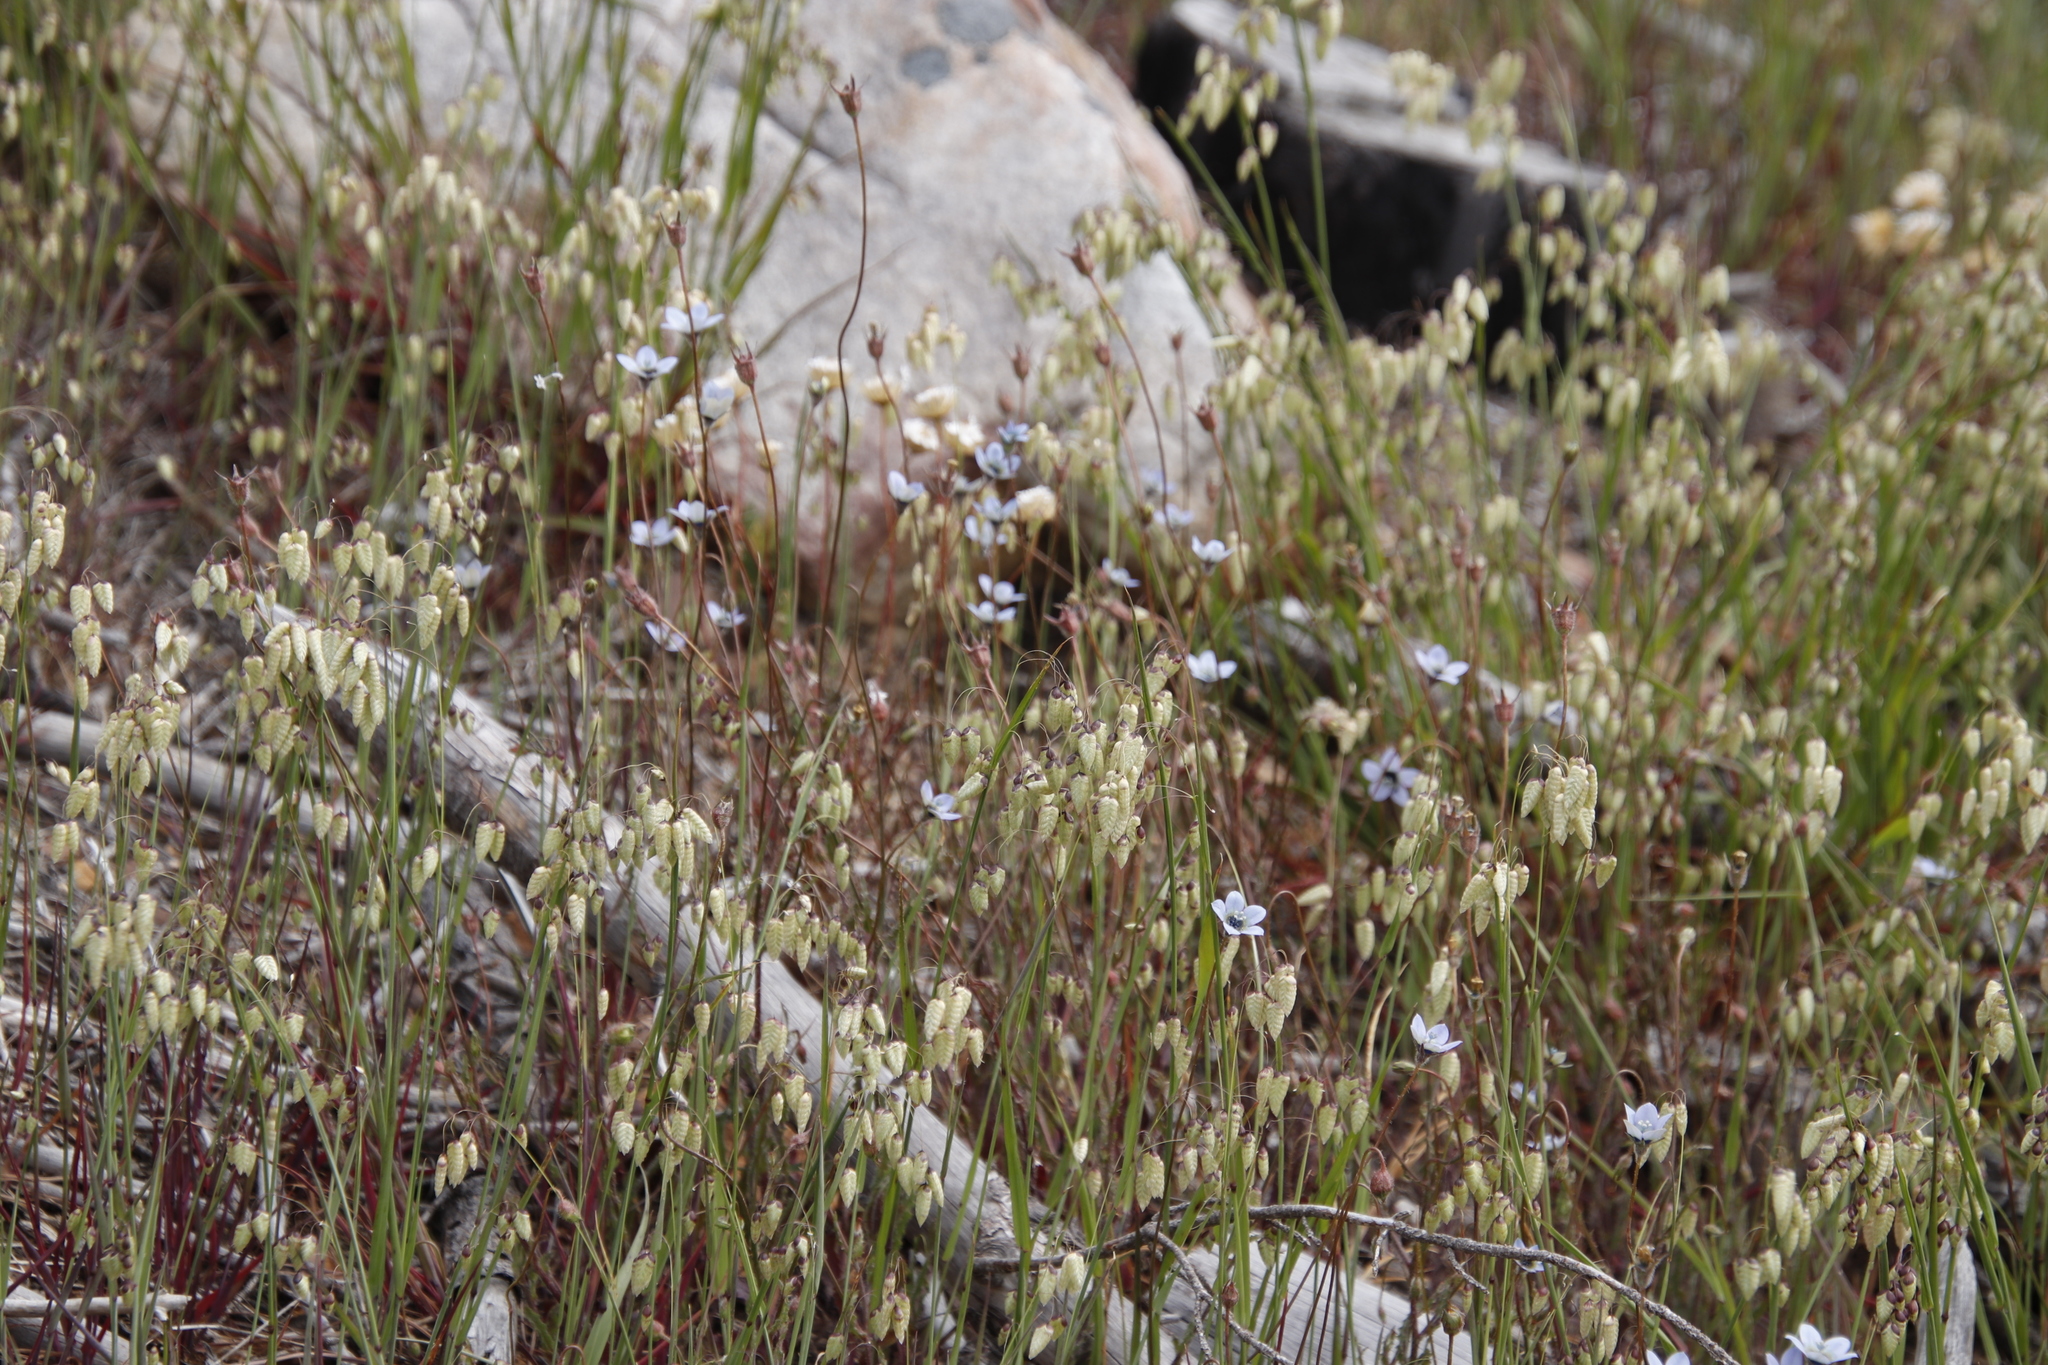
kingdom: Plantae
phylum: Tracheophyta
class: Magnoliopsida
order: Asterales
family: Campanulaceae
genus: Wahlenbergia
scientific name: Wahlenbergia capensis
